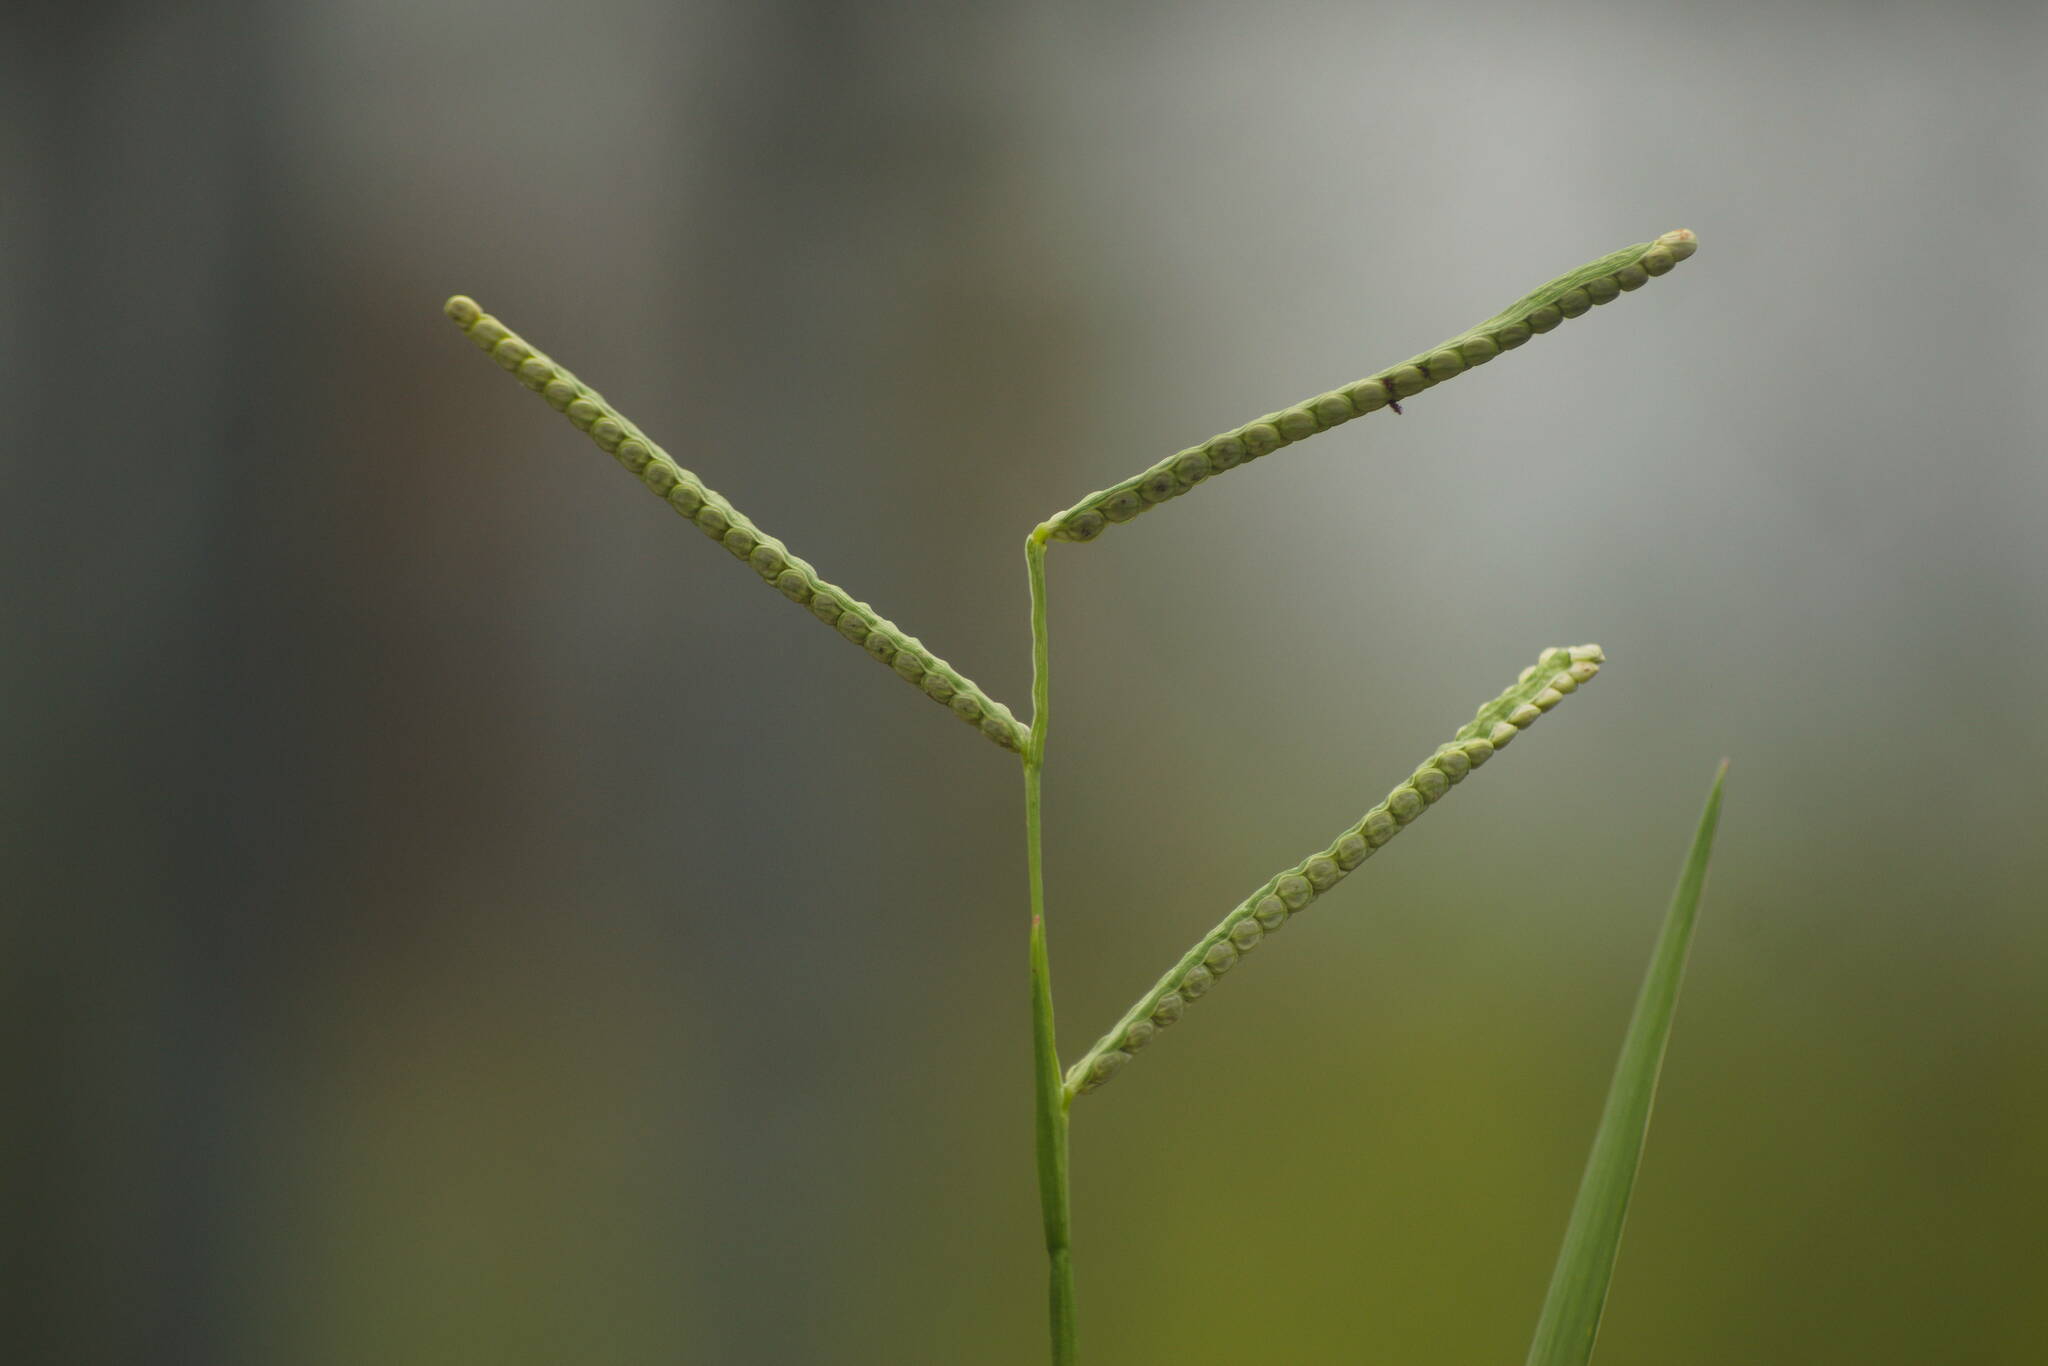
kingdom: Plantae
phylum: Tracheophyta
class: Liliopsida
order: Poales
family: Poaceae
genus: Paspalum
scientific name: Paspalum scrobiculatum
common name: Kodo millet
